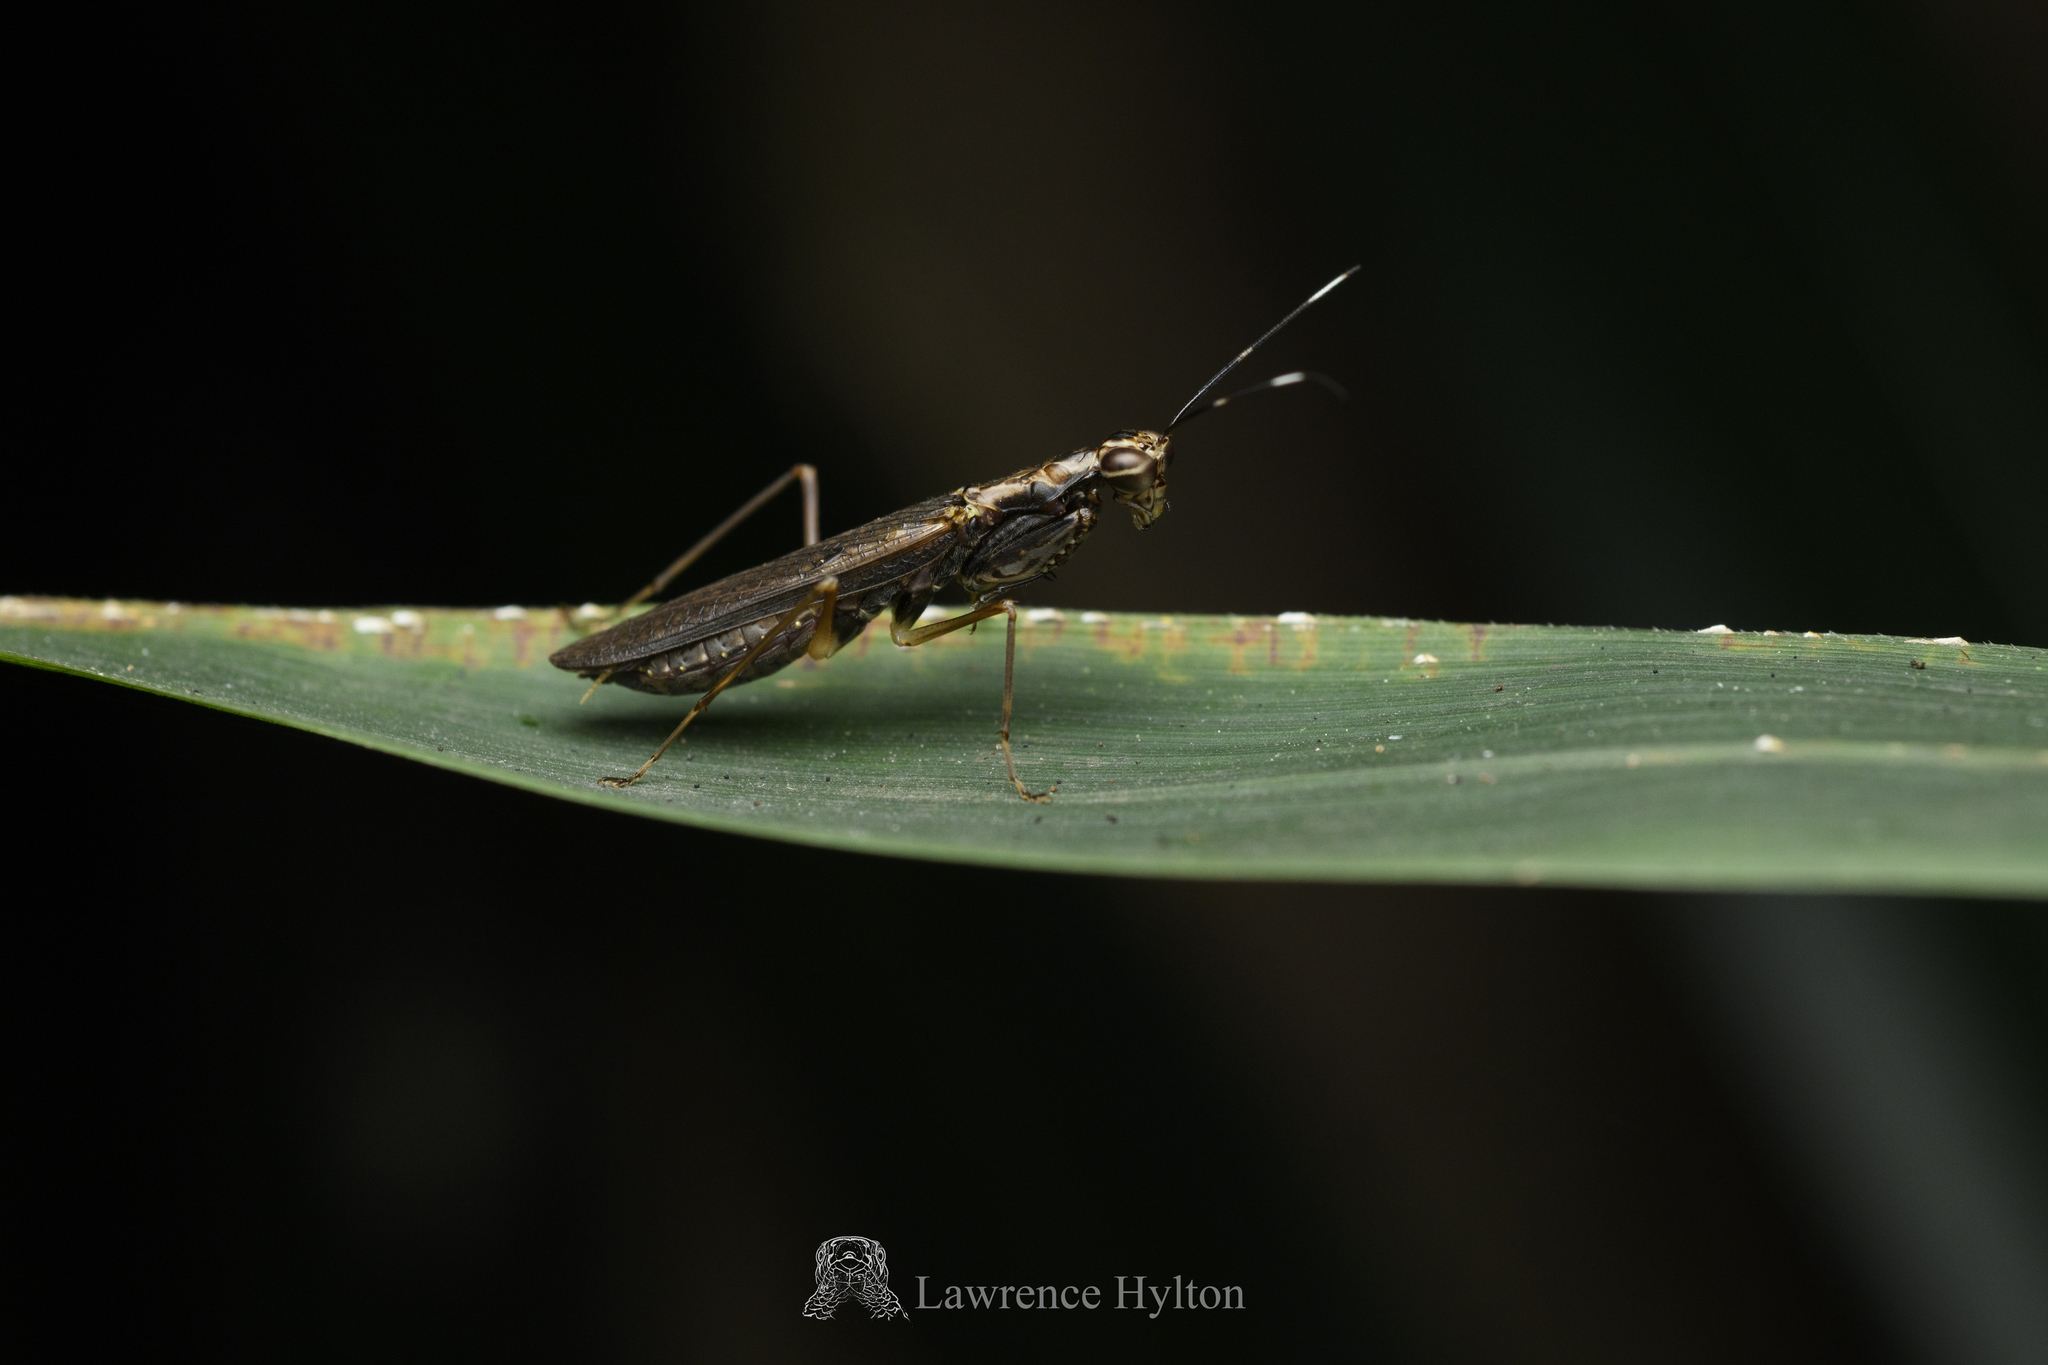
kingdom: Animalia
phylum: Arthropoda
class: Insecta
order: Mantodea
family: Gonypetidae
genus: Spilomantis
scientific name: Spilomantis occipitalis
